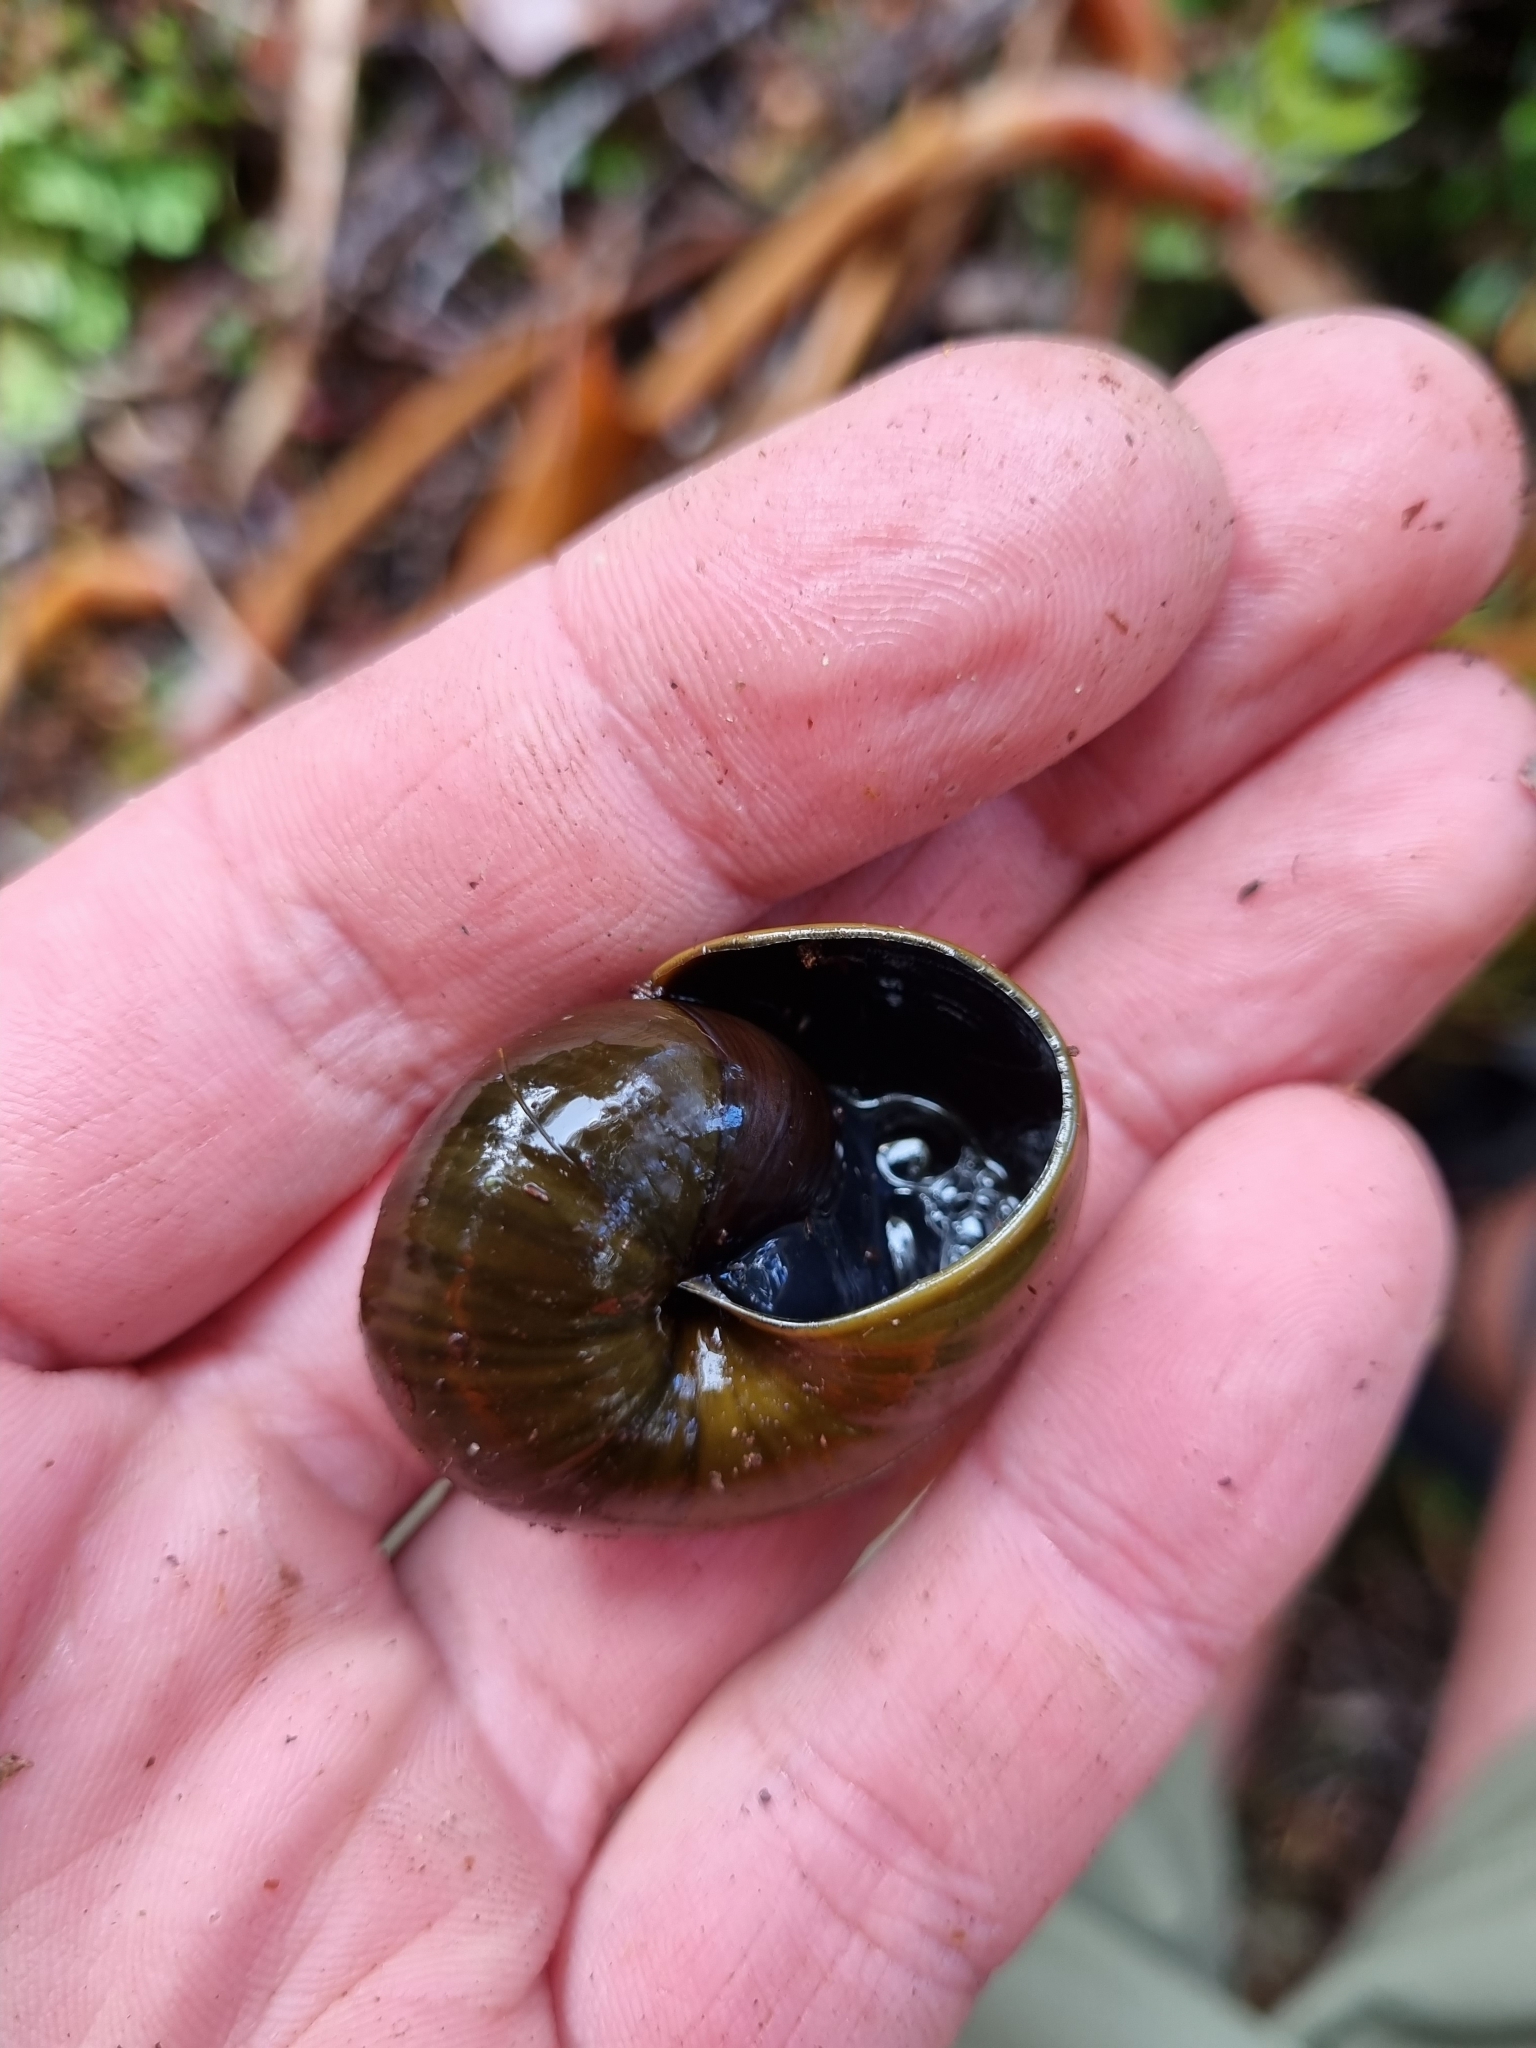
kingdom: Animalia
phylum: Mollusca
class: Gastropoda
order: Stylommatophora
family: Rhytididae
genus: Powelliphanta
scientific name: Powelliphanta superba
